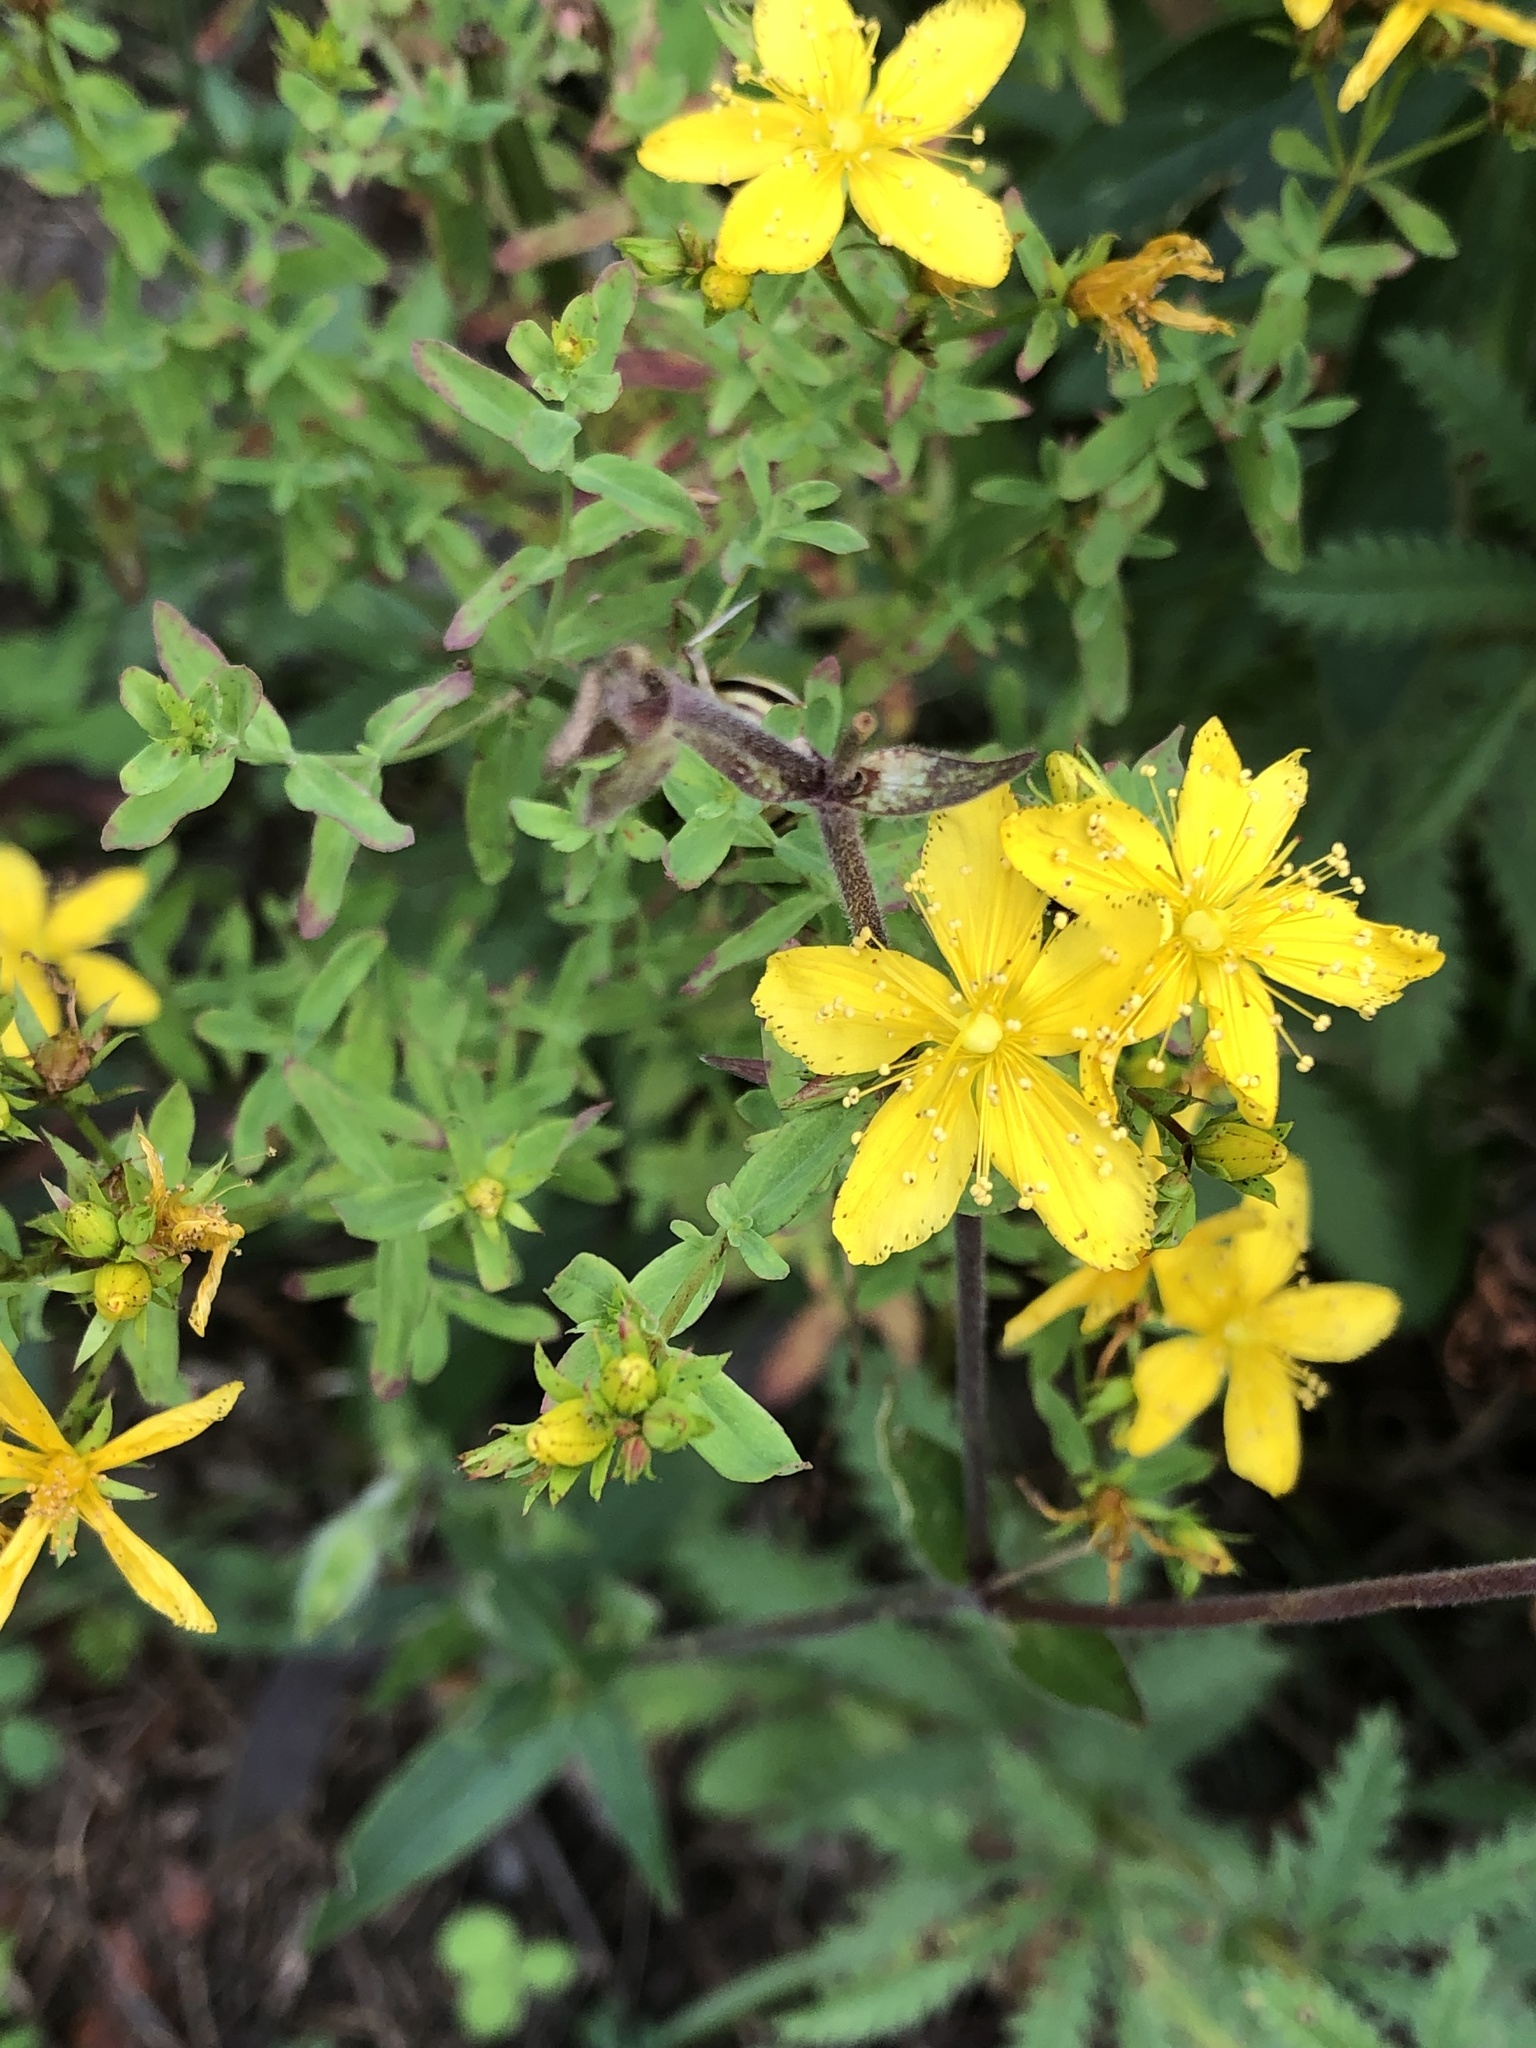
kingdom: Plantae
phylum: Tracheophyta
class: Magnoliopsida
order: Malpighiales
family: Hypericaceae
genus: Hypericum
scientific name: Hypericum perforatum
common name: Common st. johnswort
